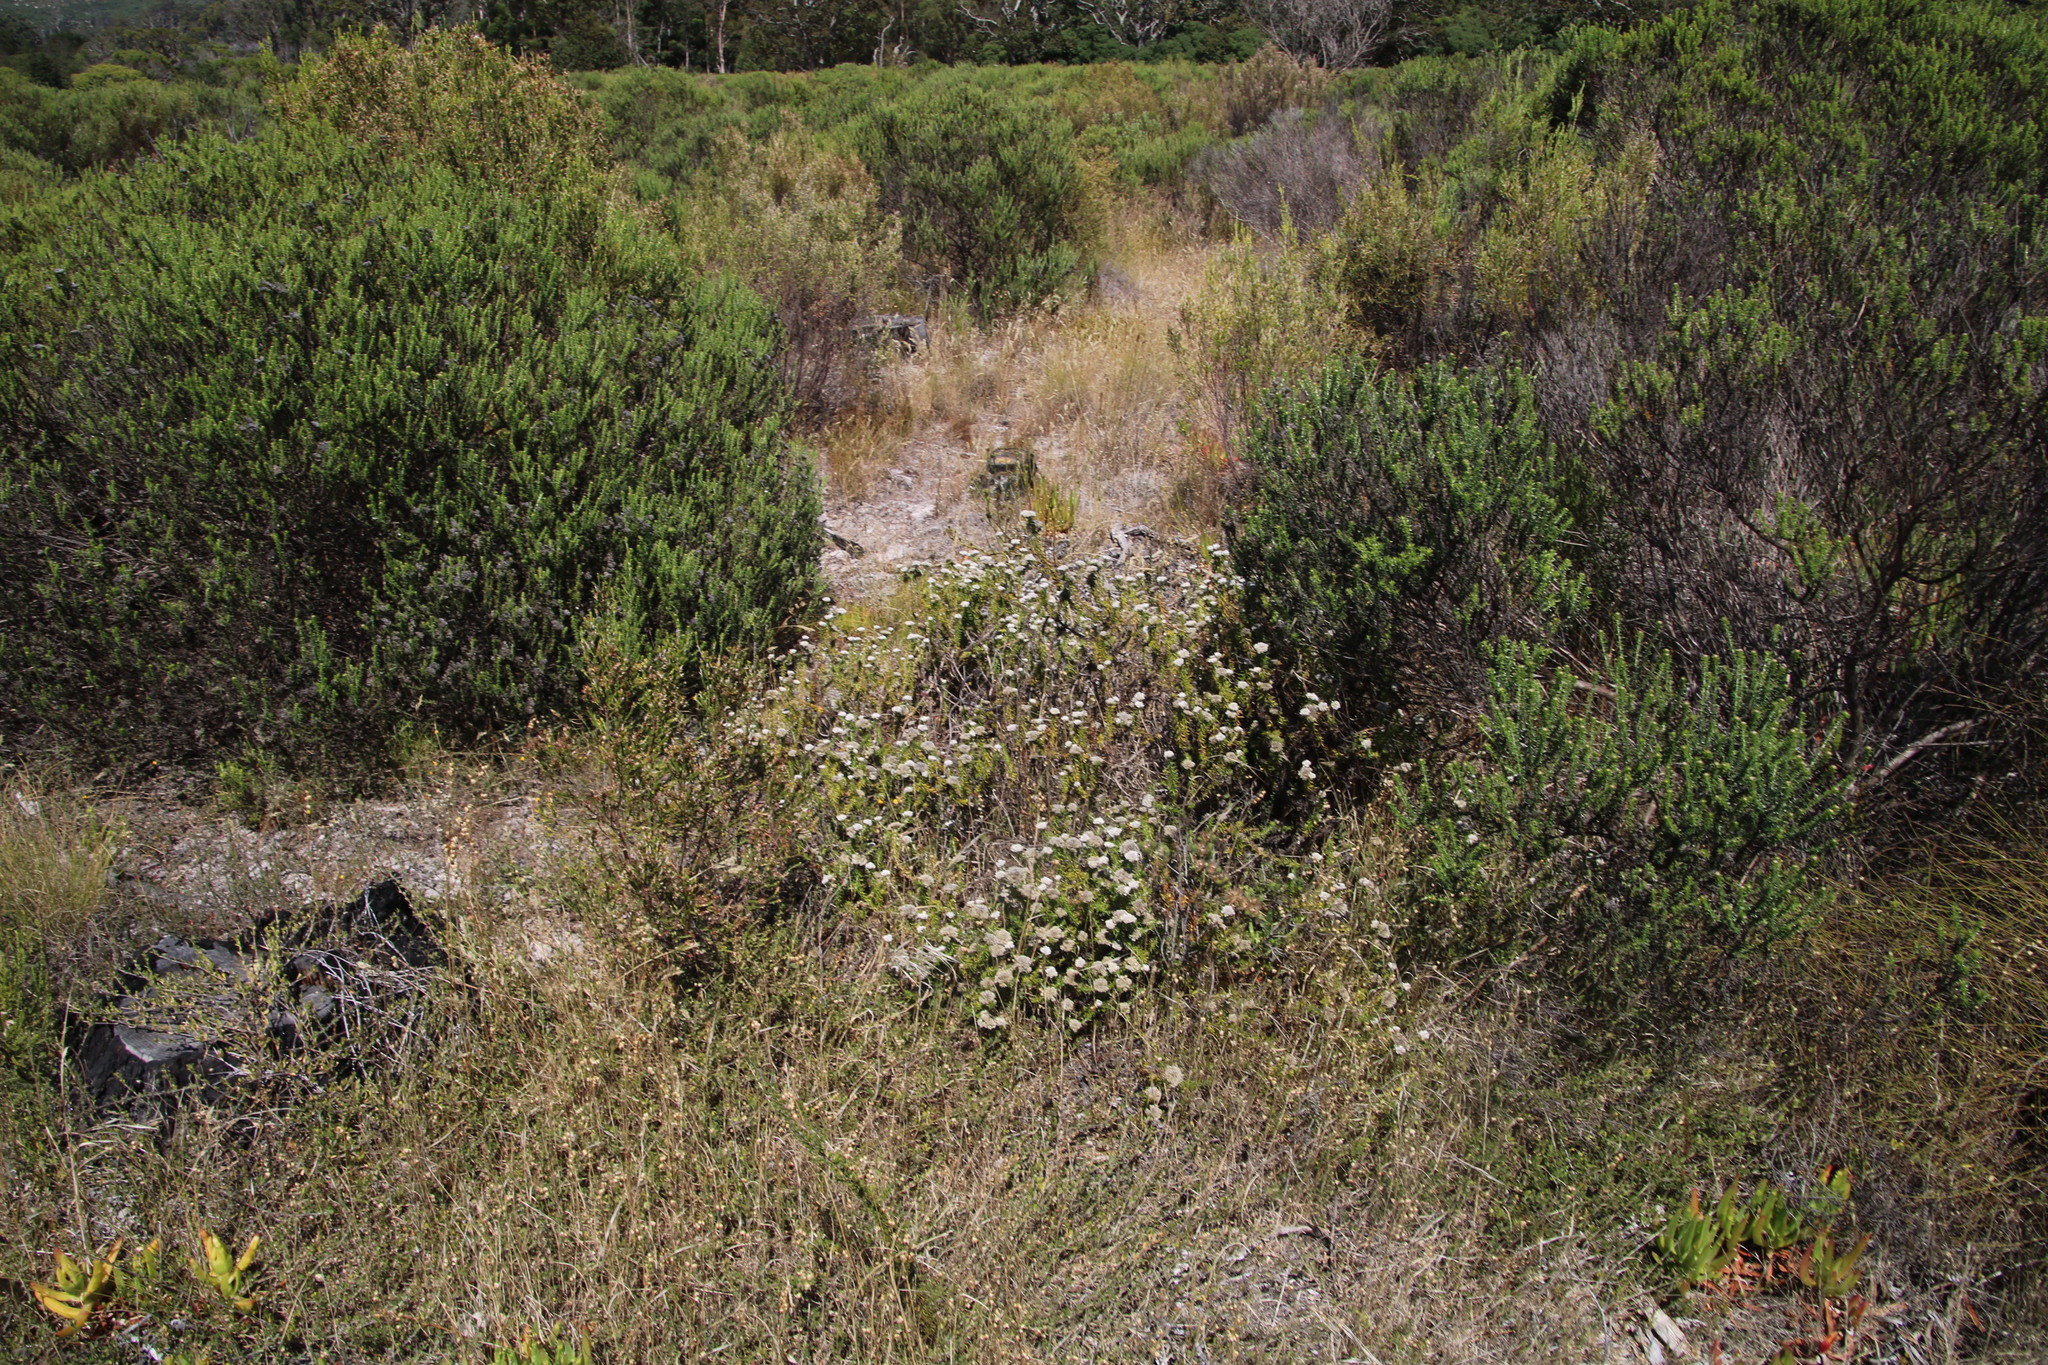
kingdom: Plantae
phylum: Tracheophyta
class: Magnoliopsida
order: Asterales
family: Asteraceae
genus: Metalasia
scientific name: Metalasia pulchella
